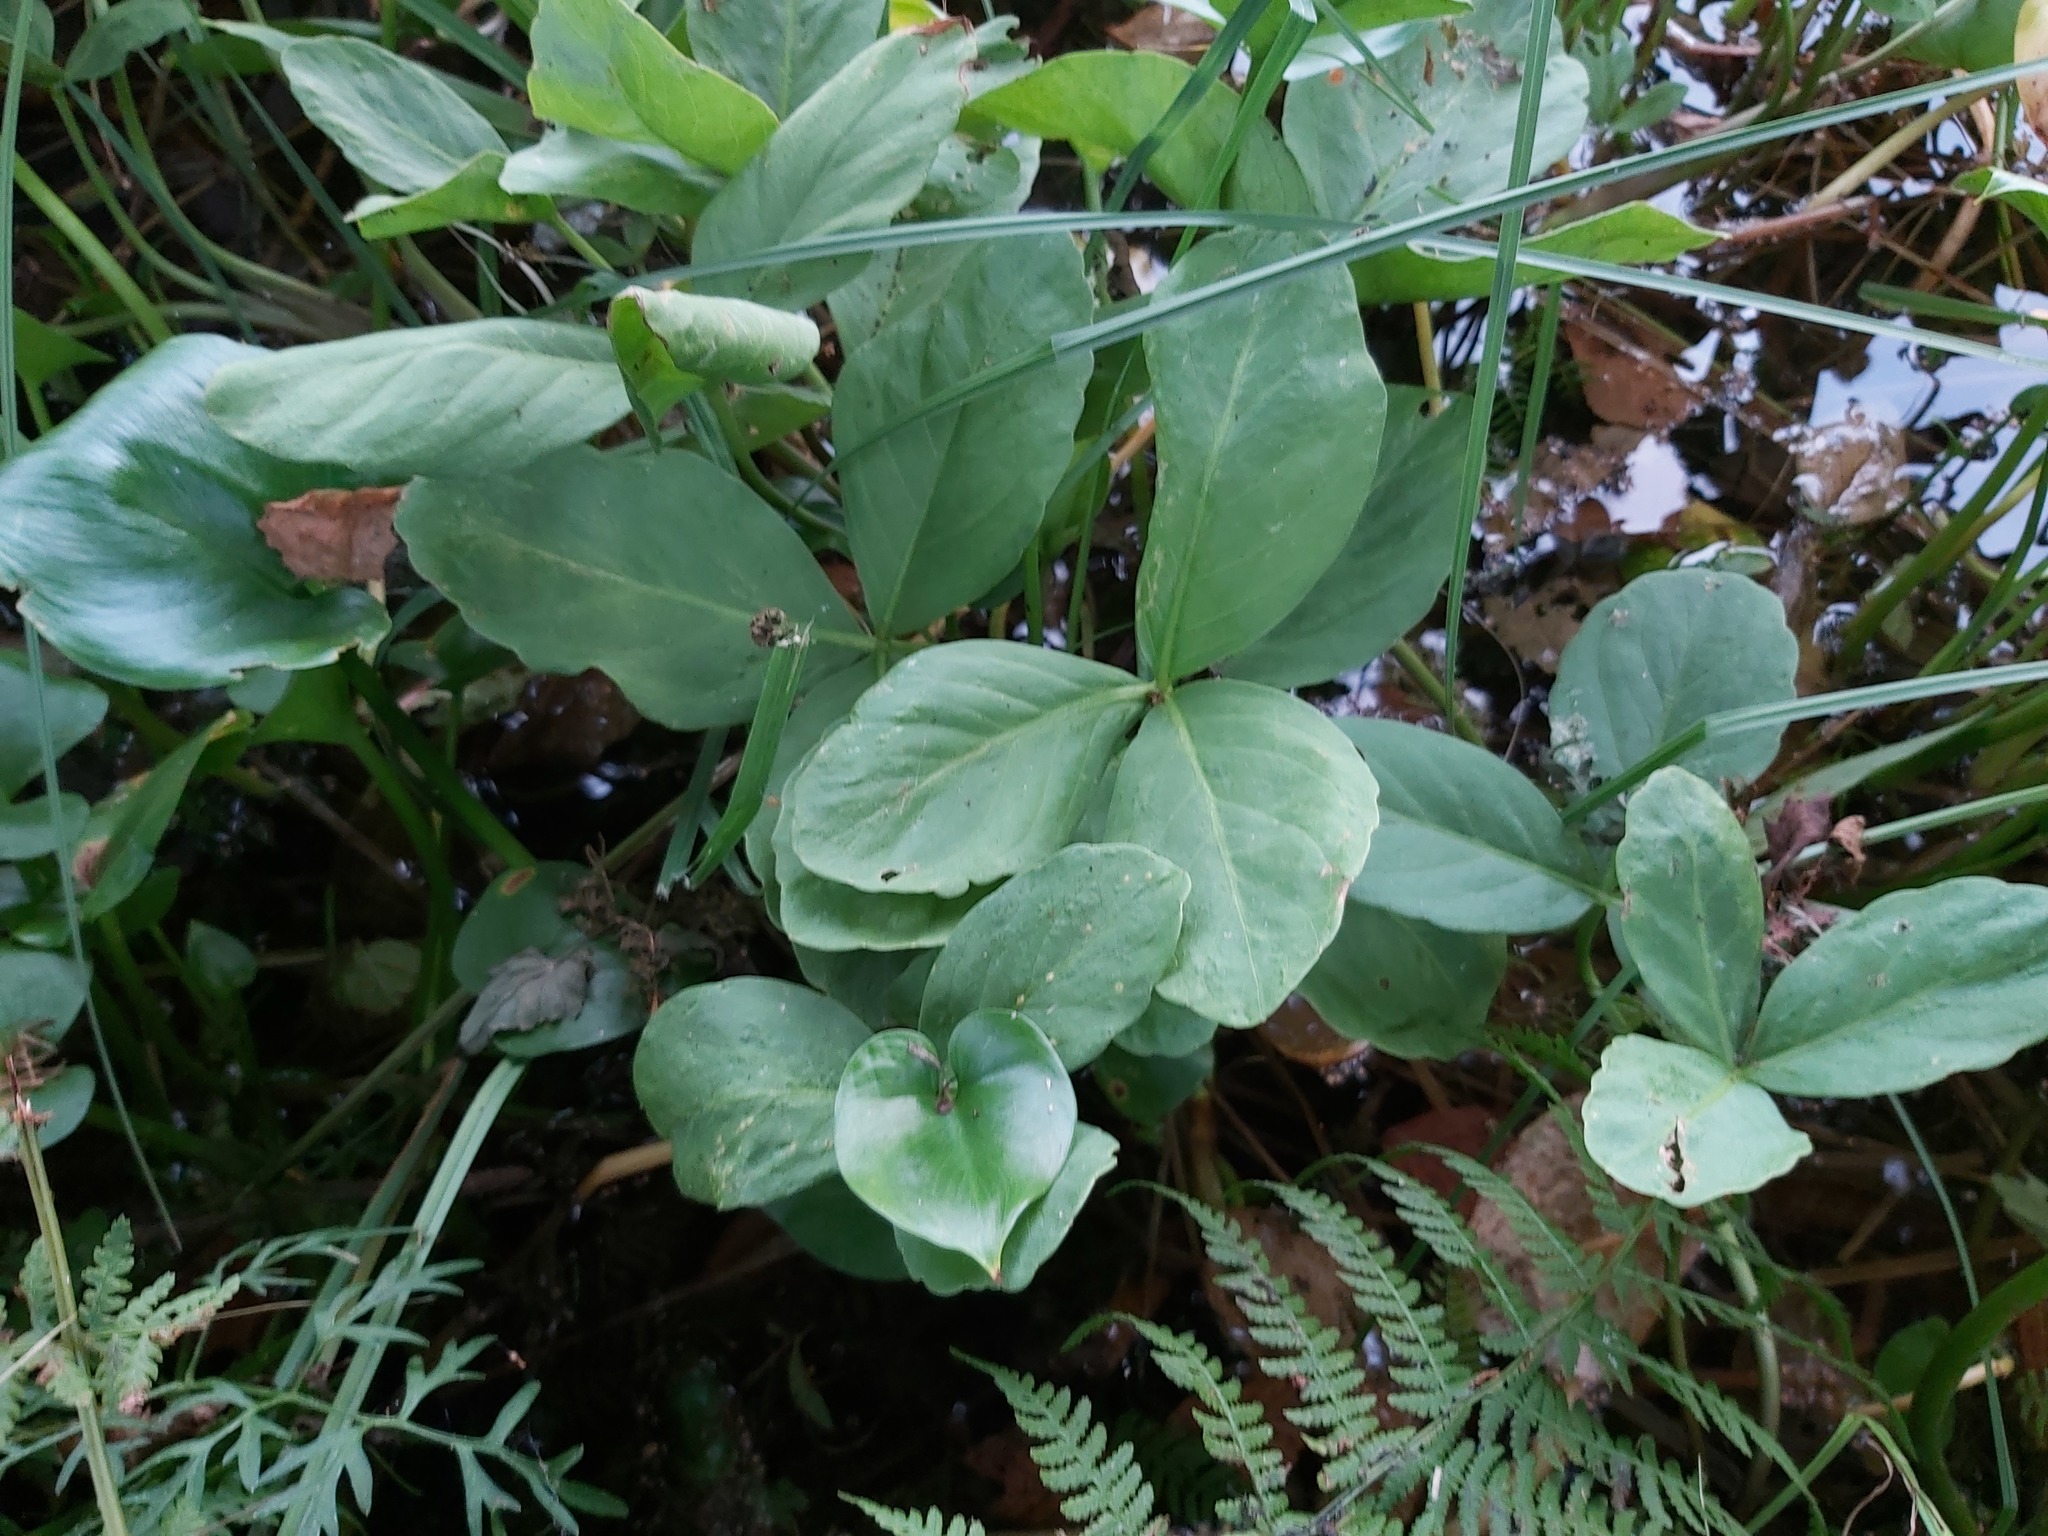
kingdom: Plantae
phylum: Tracheophyta
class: Magnoliopsida
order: Asterales
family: Menyanthaceae
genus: Menyanthes
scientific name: Menyanthes trifoliata
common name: Bogbean
